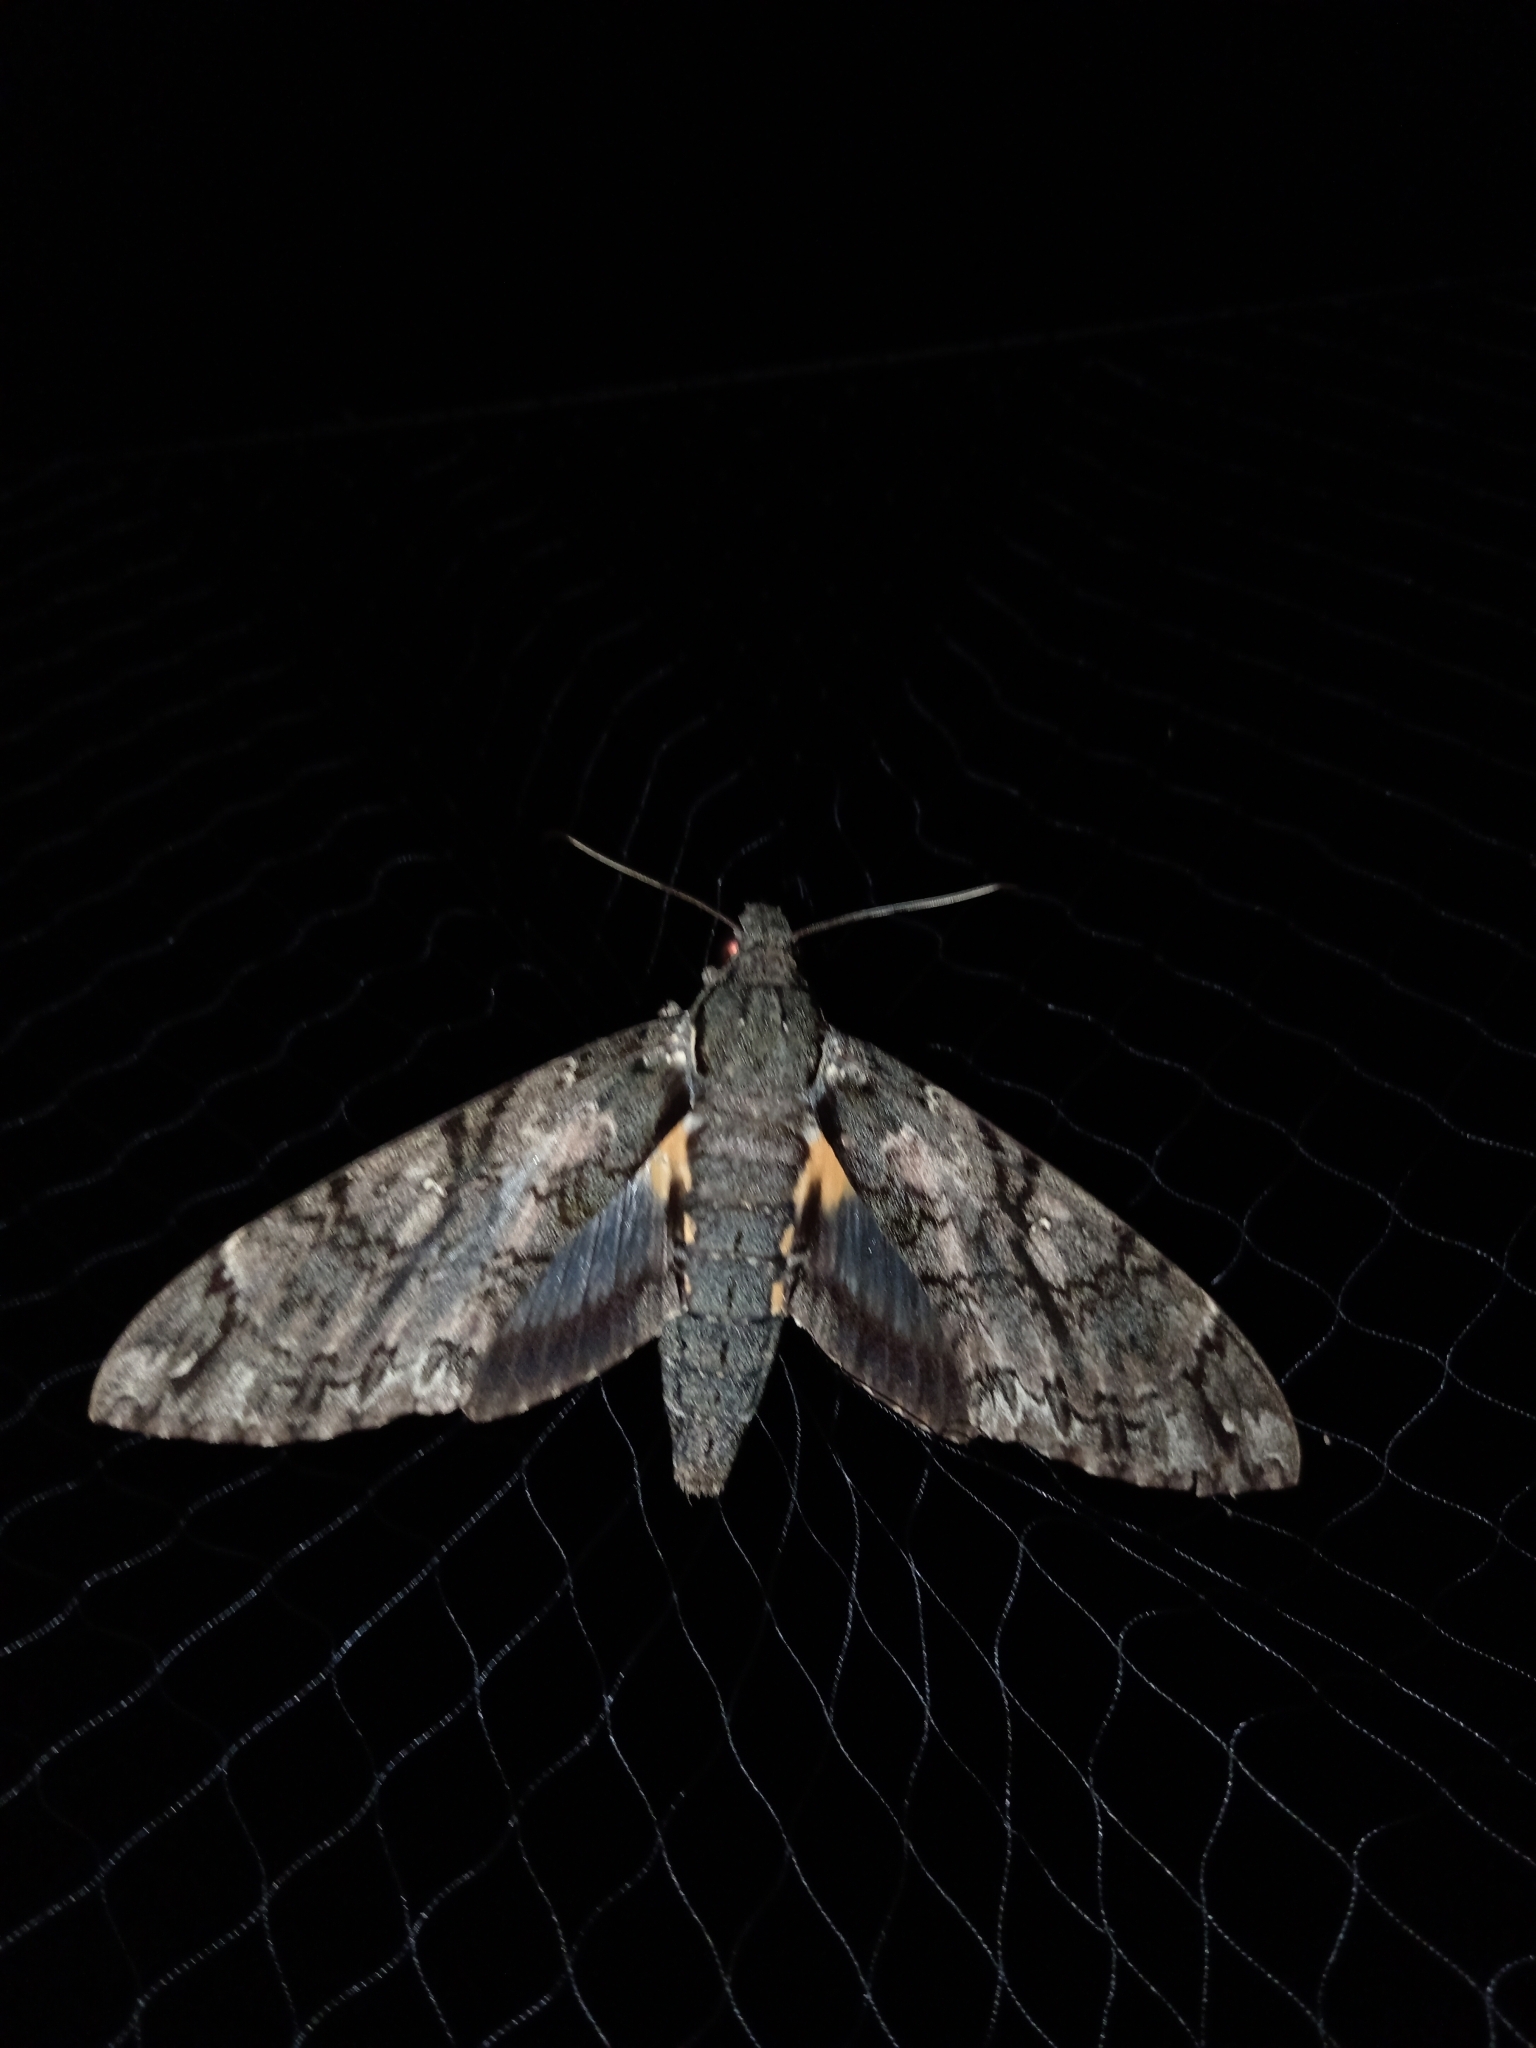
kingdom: Animalia
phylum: Arthropoda
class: Insecta
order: Lepidoptera
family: Sphingidae
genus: Cocytius
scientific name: Cocytius antaeus
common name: Giant sphinx
